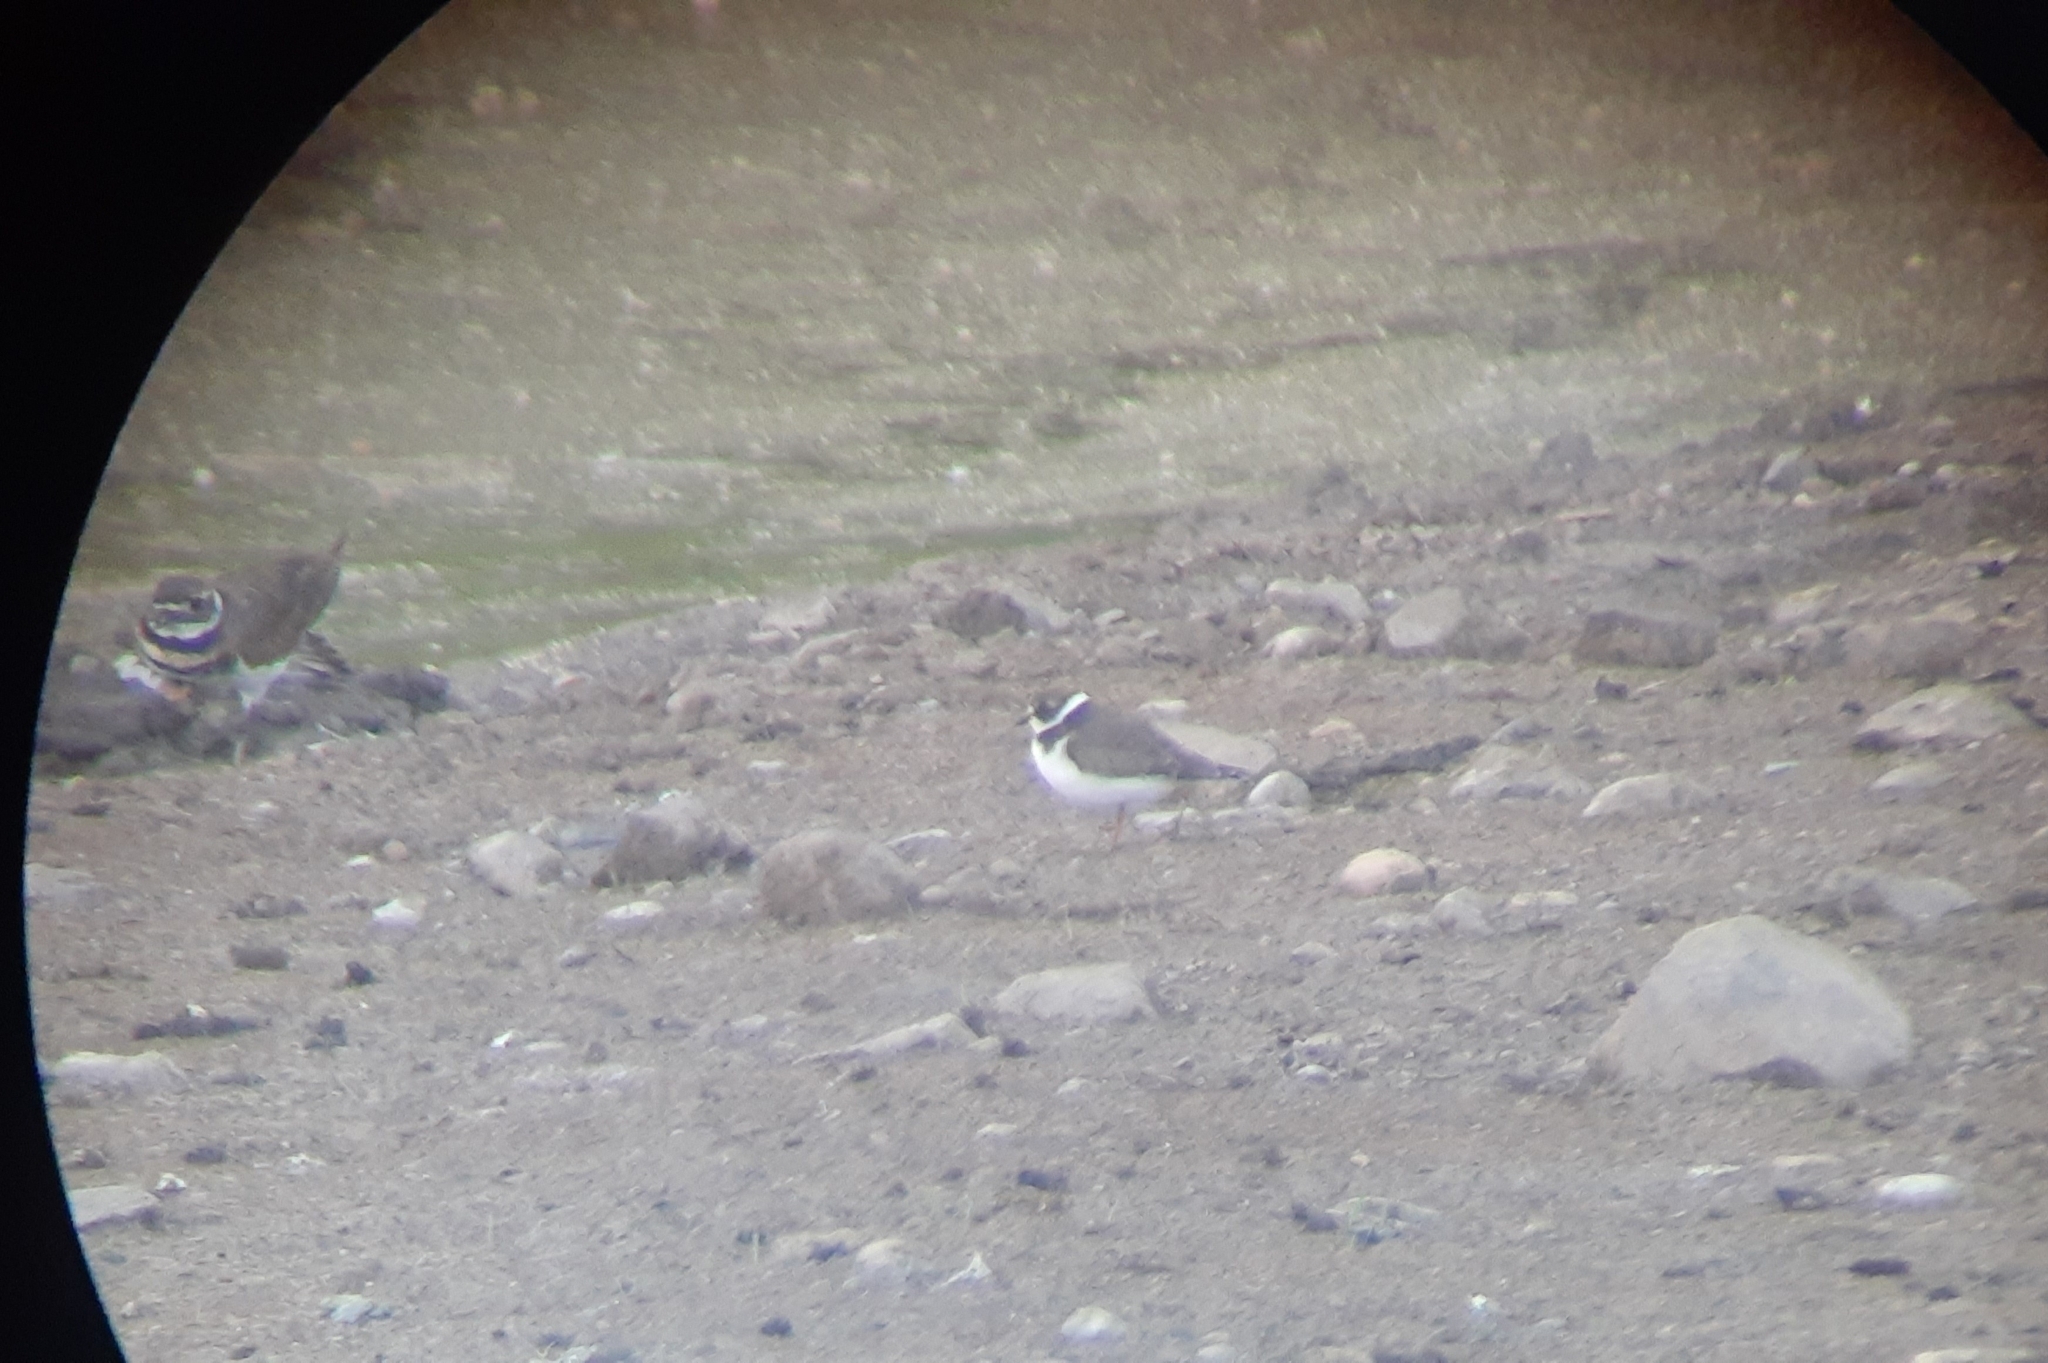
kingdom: Animalia
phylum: Chordata
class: Aves
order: Charadriiformes
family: Charadriidae
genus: Charadrius
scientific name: Charadrius semipalmatus
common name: Semipalmated plover
